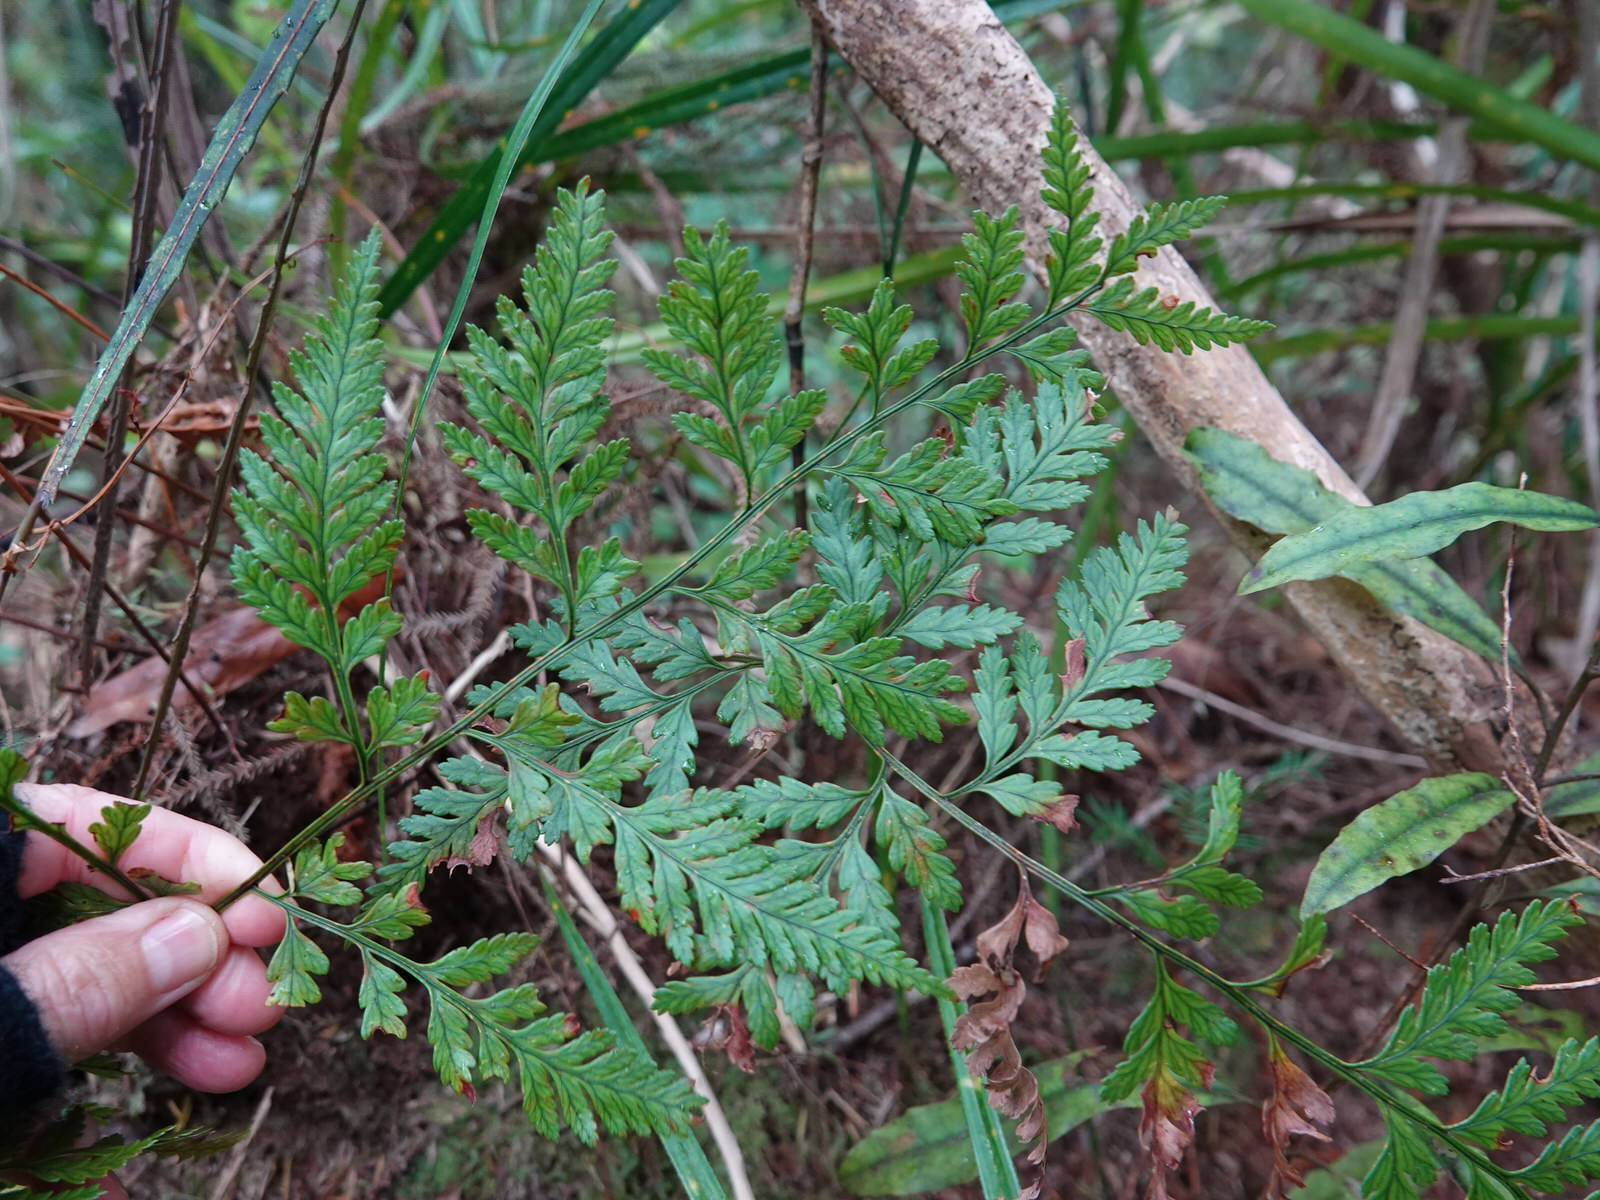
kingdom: Plantae
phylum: Tracheophyta
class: Polypodiopsida
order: Polypodiales
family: Dryopteridaceae
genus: Rumohra
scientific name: Rumohra adiantiformis
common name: Leather fern
